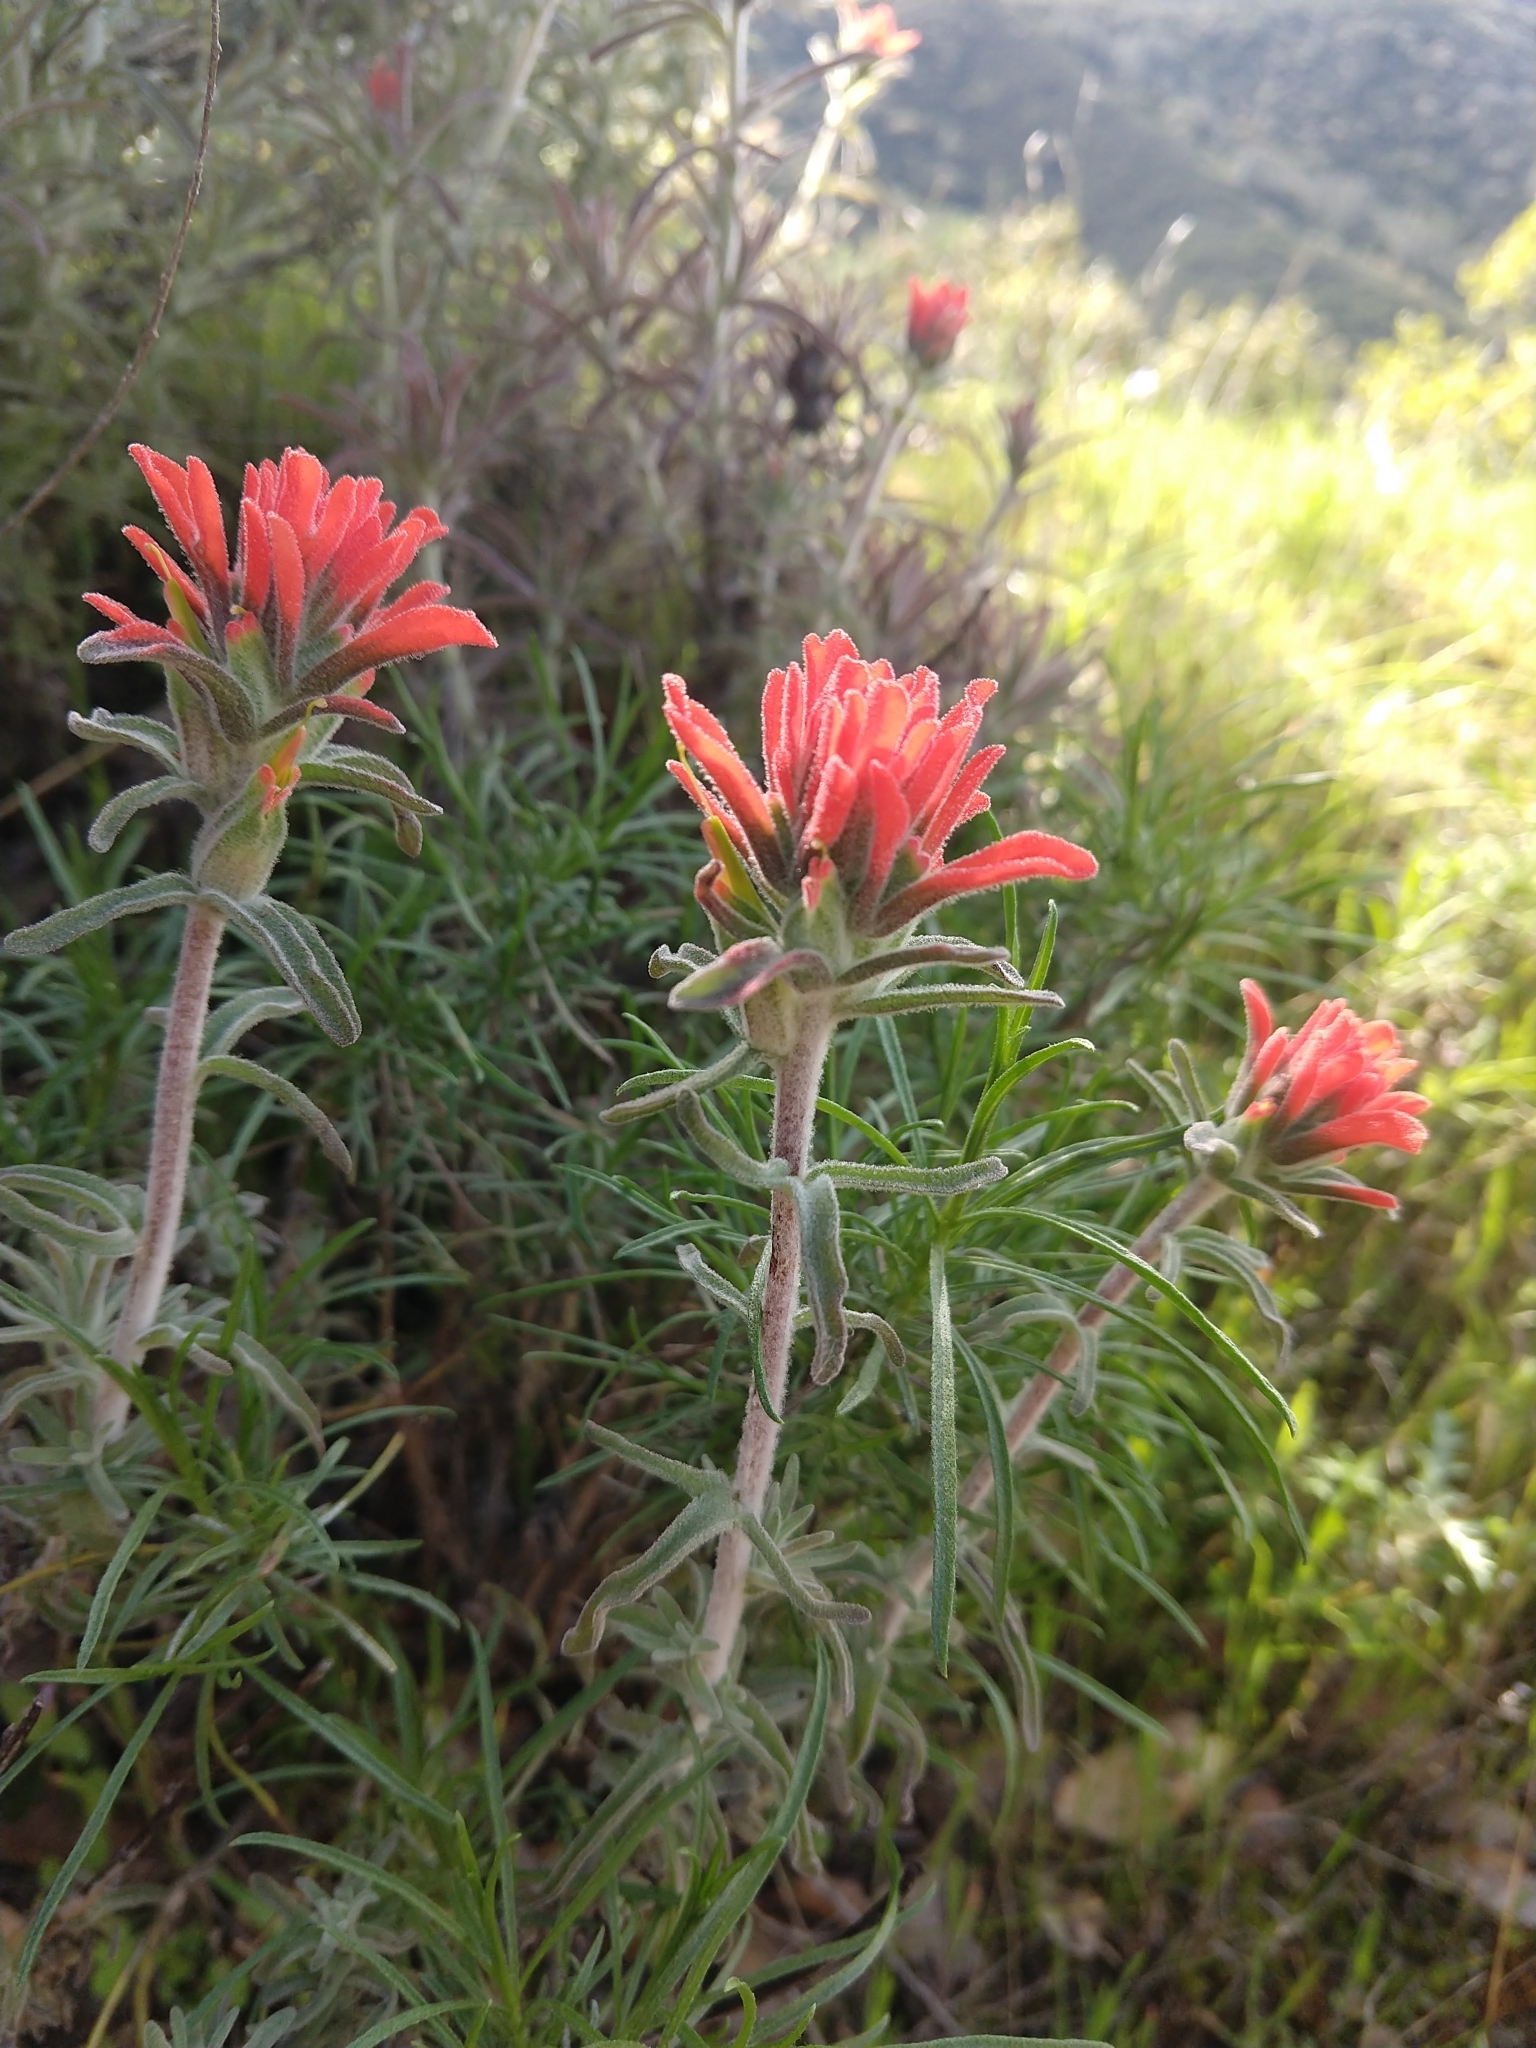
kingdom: Plantae
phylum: Tracheophyta
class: Magnoliopsida
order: Lamiales
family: Orobanchaceae
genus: Castilleja
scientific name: Castilleja foliolosa
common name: Woolly indian paintbrush
